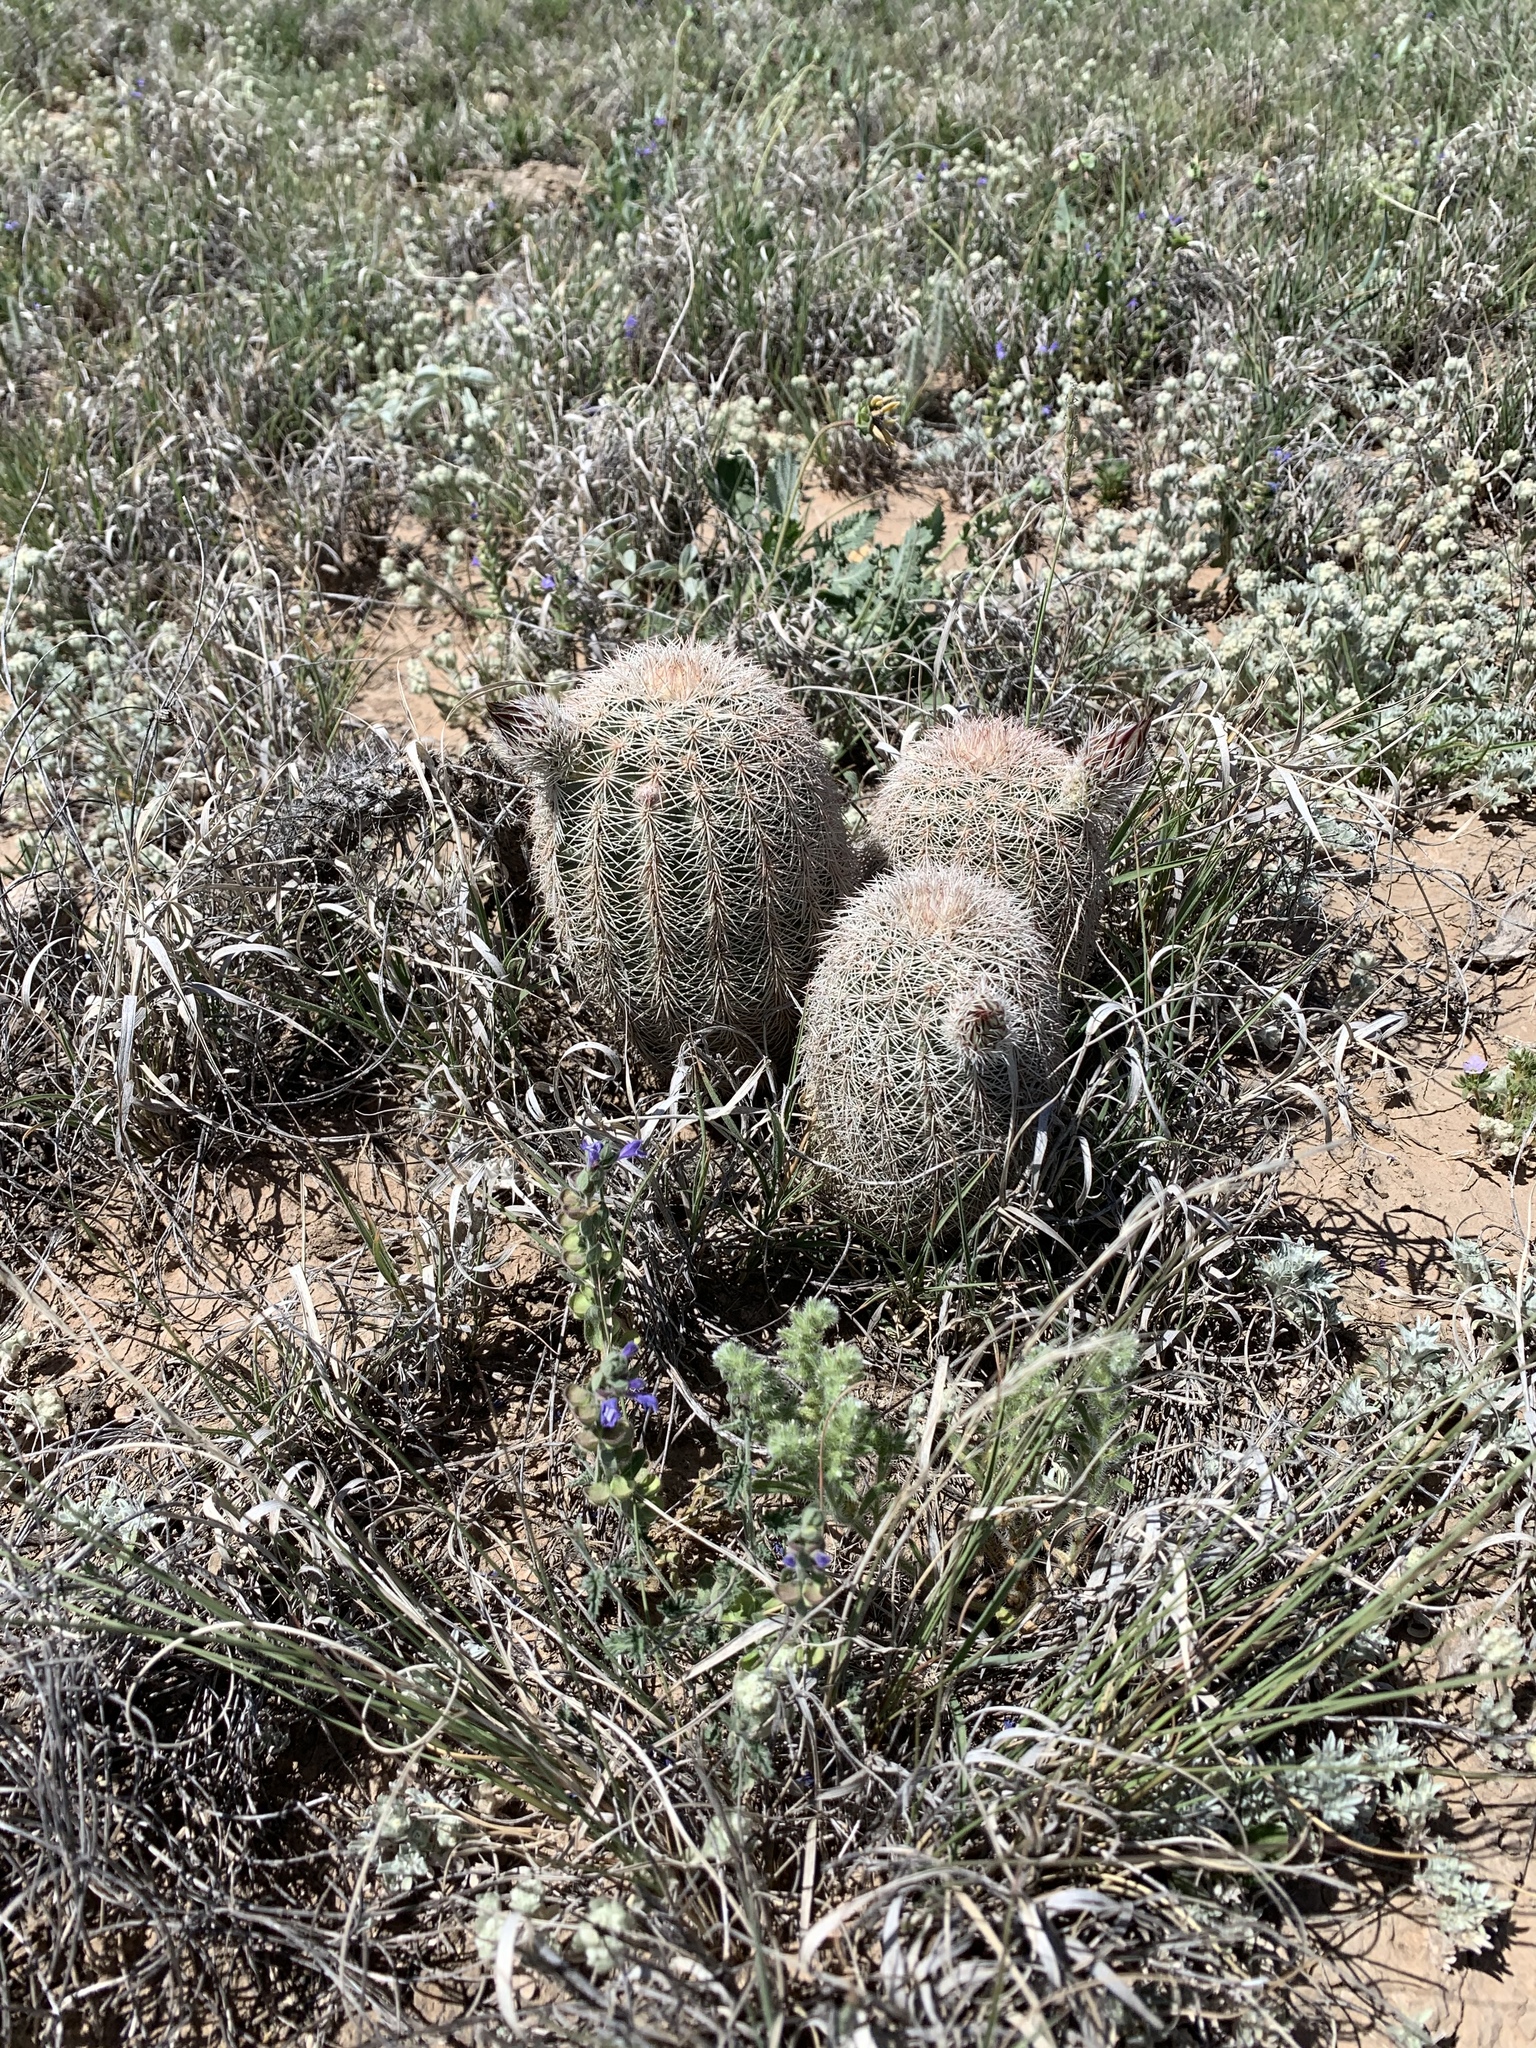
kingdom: Plantae
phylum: Tracheophyta
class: Magnoliopsida
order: Caryophyllales
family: Cactaceae
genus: Echinocereus
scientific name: Echinocereus dasyacanthus
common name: Spiny hedgehog cactus
